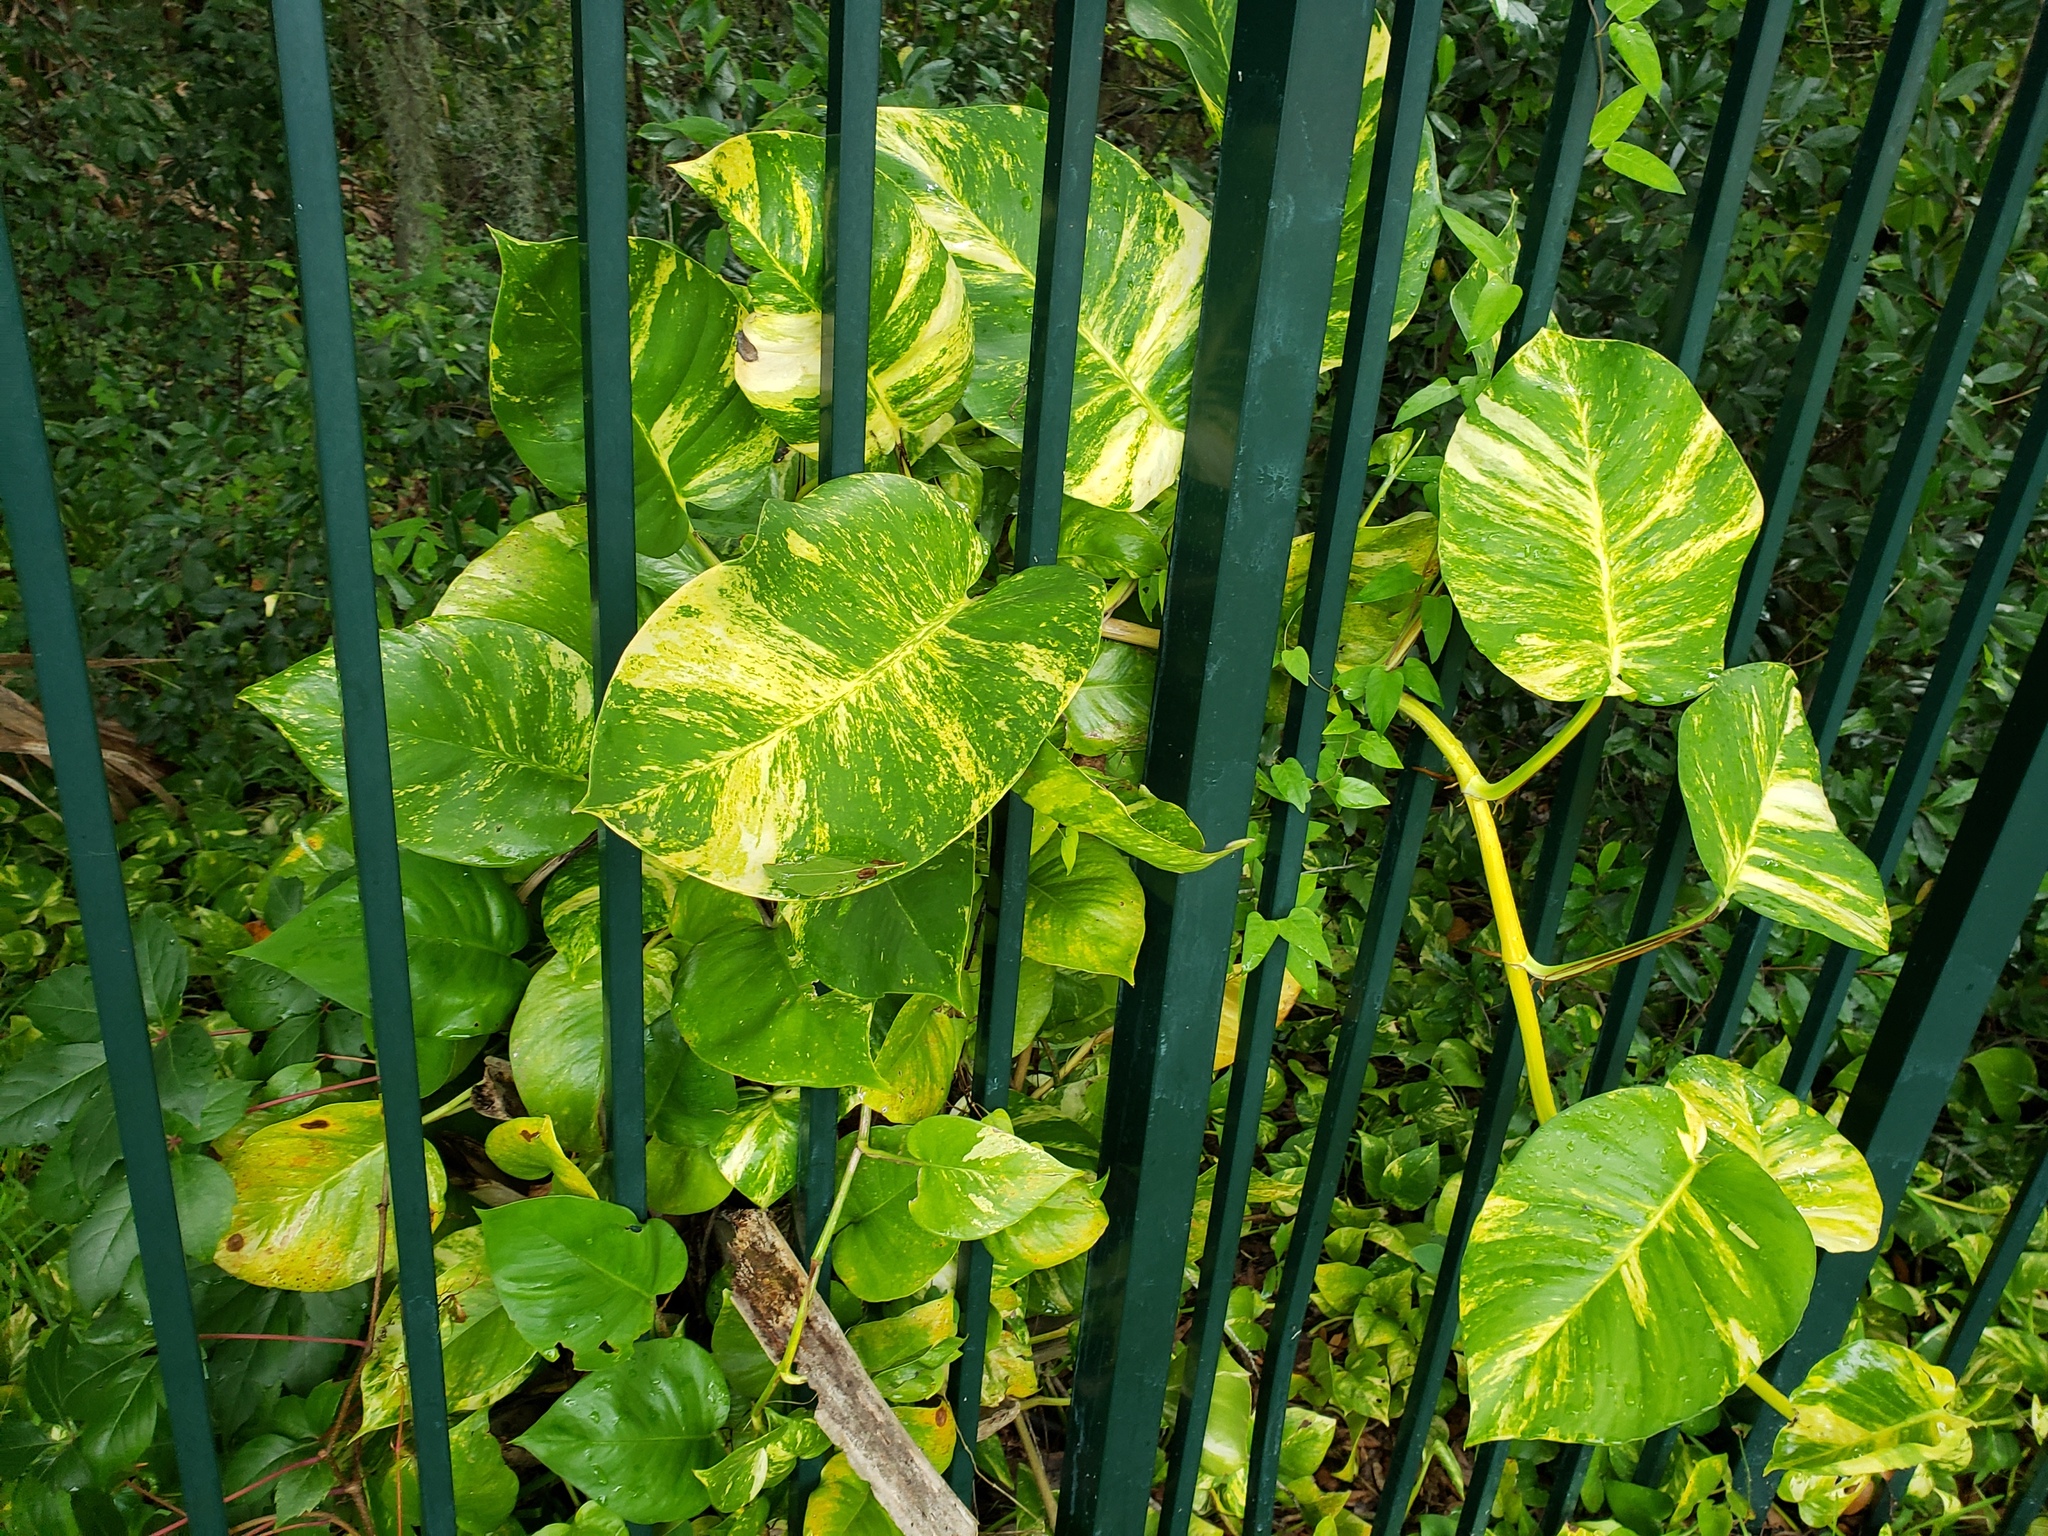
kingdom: Plantae
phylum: Tracheophyta
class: Liliopsida
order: Alismatales
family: Araceae
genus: Epipremnum
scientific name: Epipremnum aureum
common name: Golden hunter's-robe
